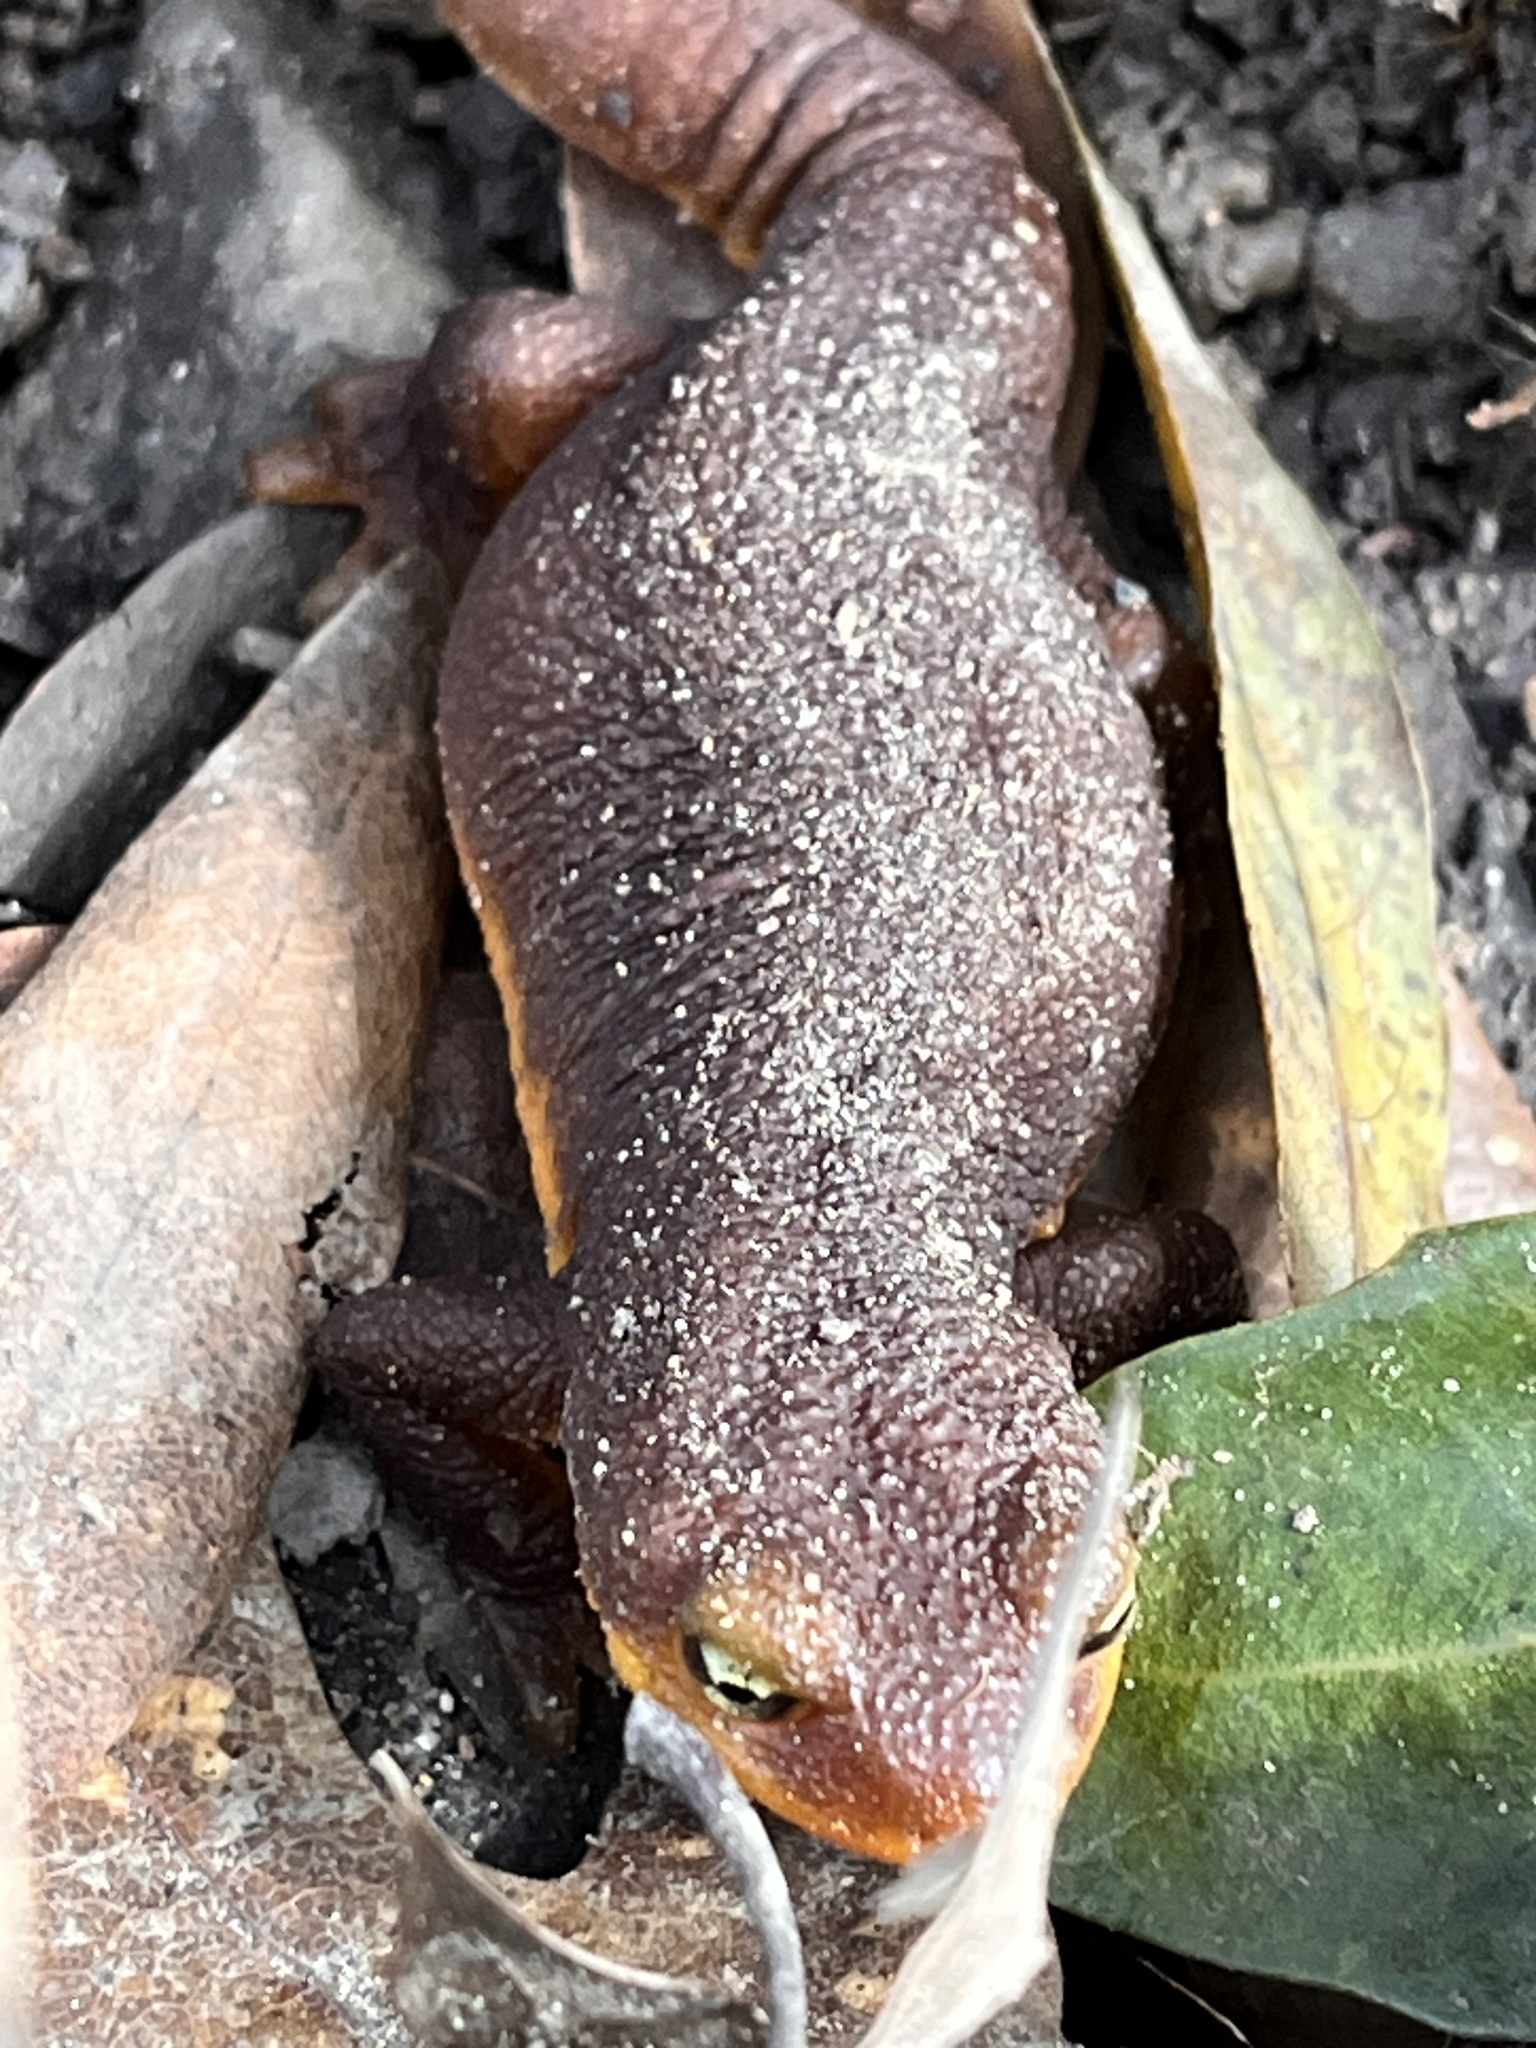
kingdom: Animalia
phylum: Chordata
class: Amphibia
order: Caudata
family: Salamandridae
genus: Taricha
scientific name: Taricha torosa
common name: California newt
